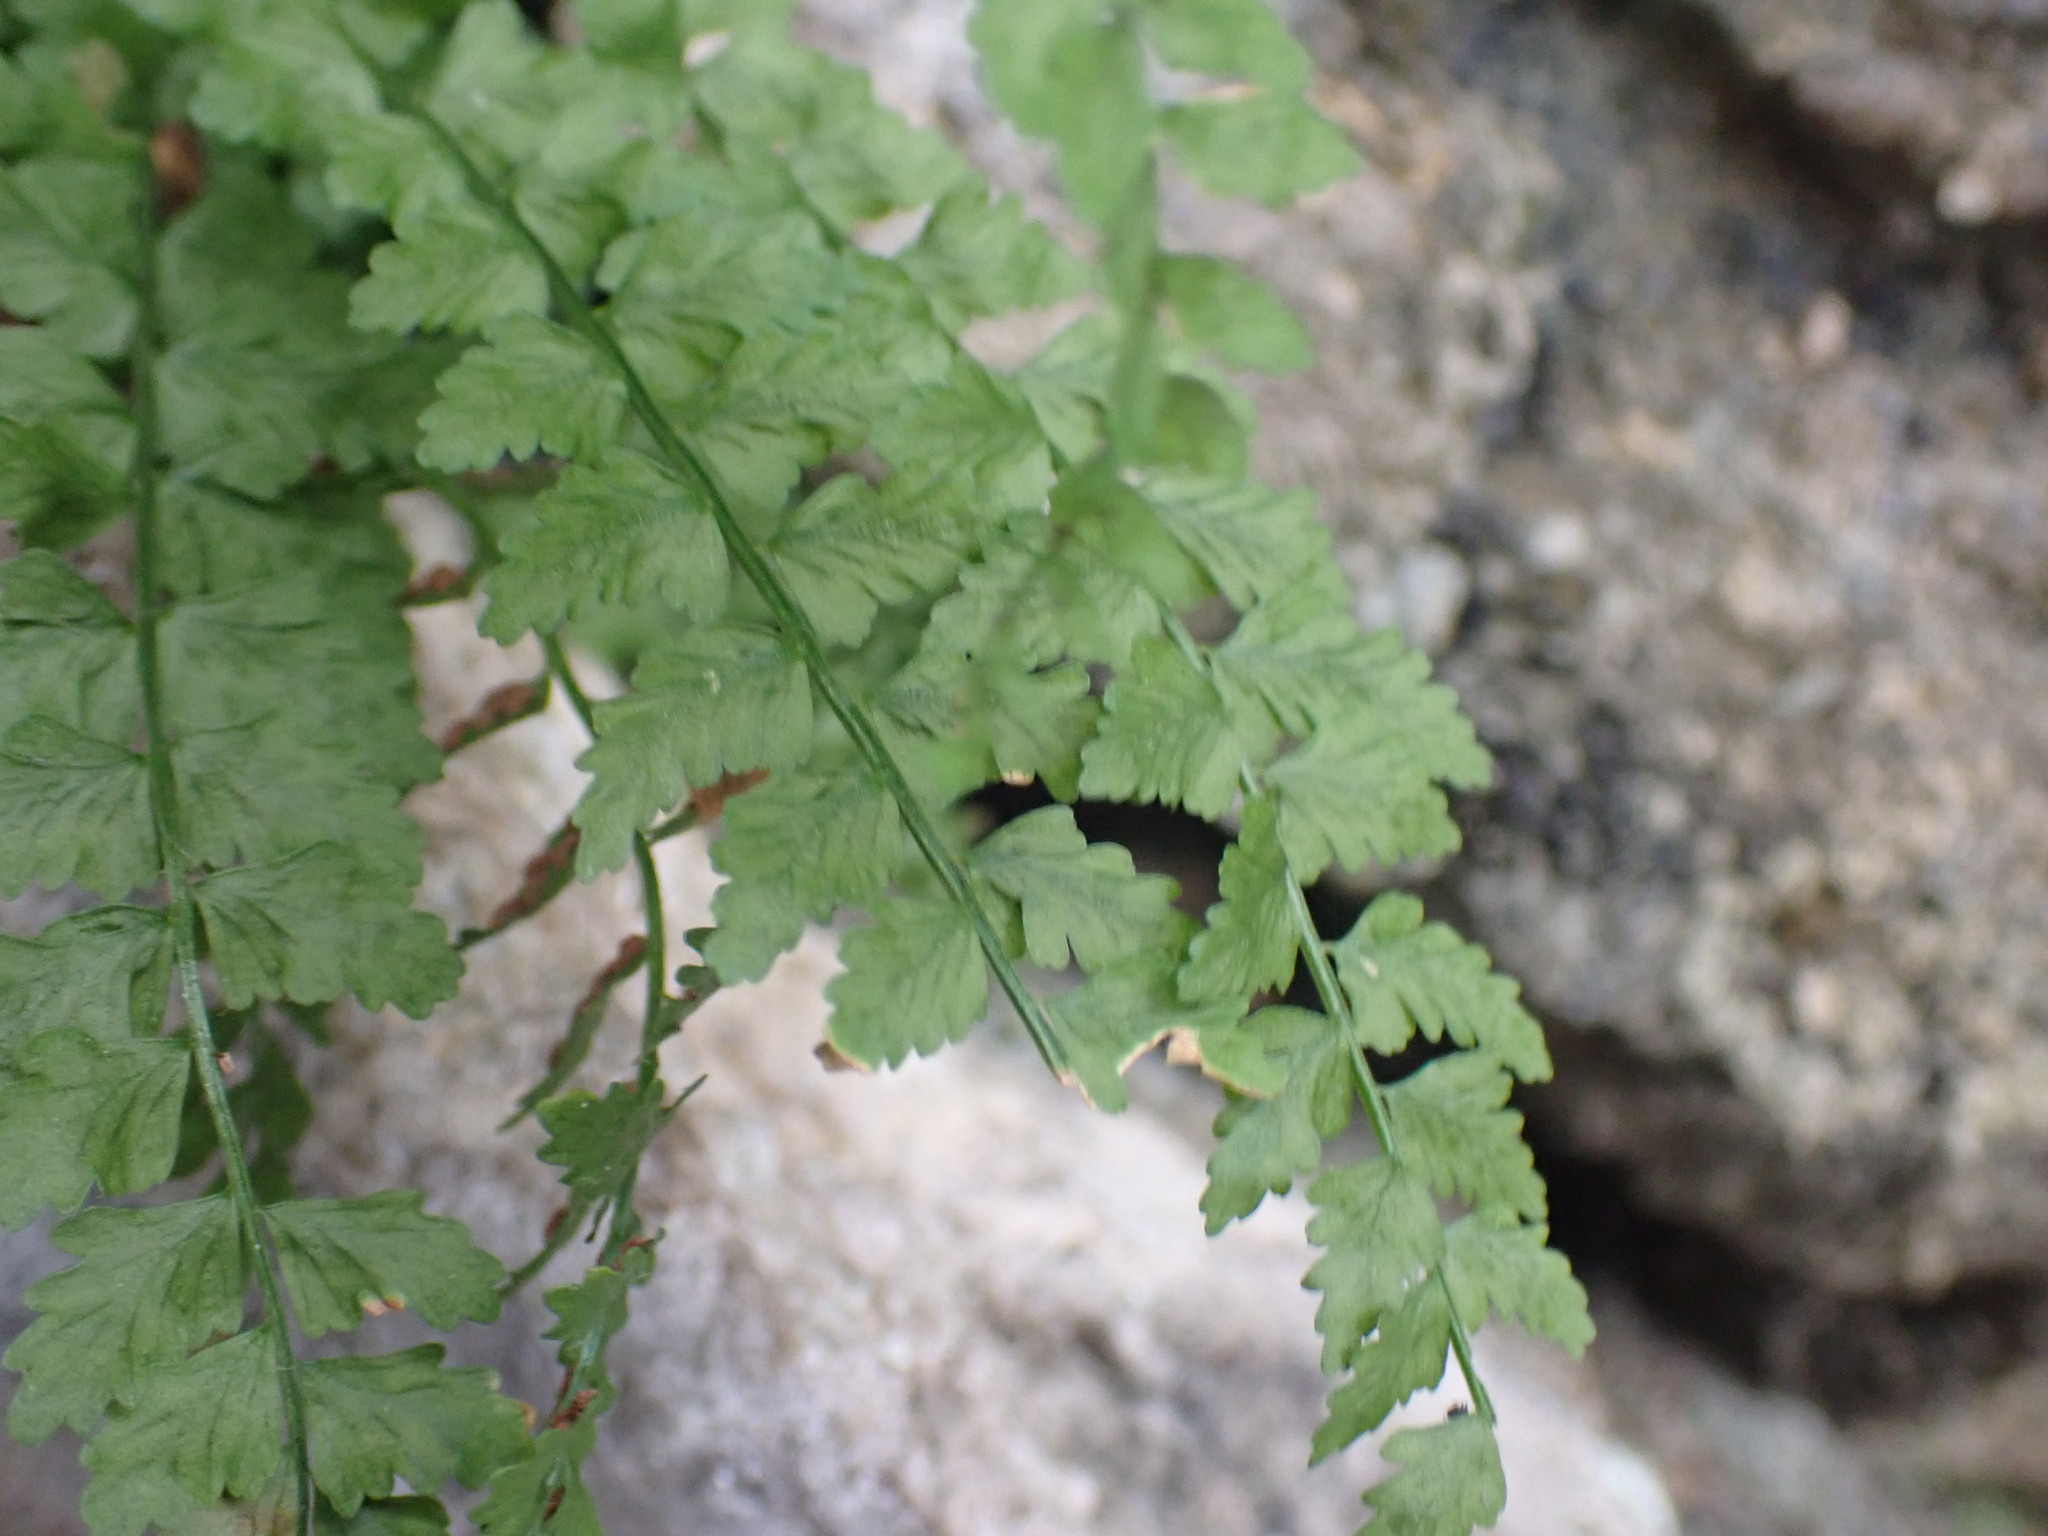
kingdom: Plantae
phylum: Tracheophyta
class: Polypodiopsida
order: Polypodiales
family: Aspleniaceae
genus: Asplenium
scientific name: Asplenium viride
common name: Green spleenwort
